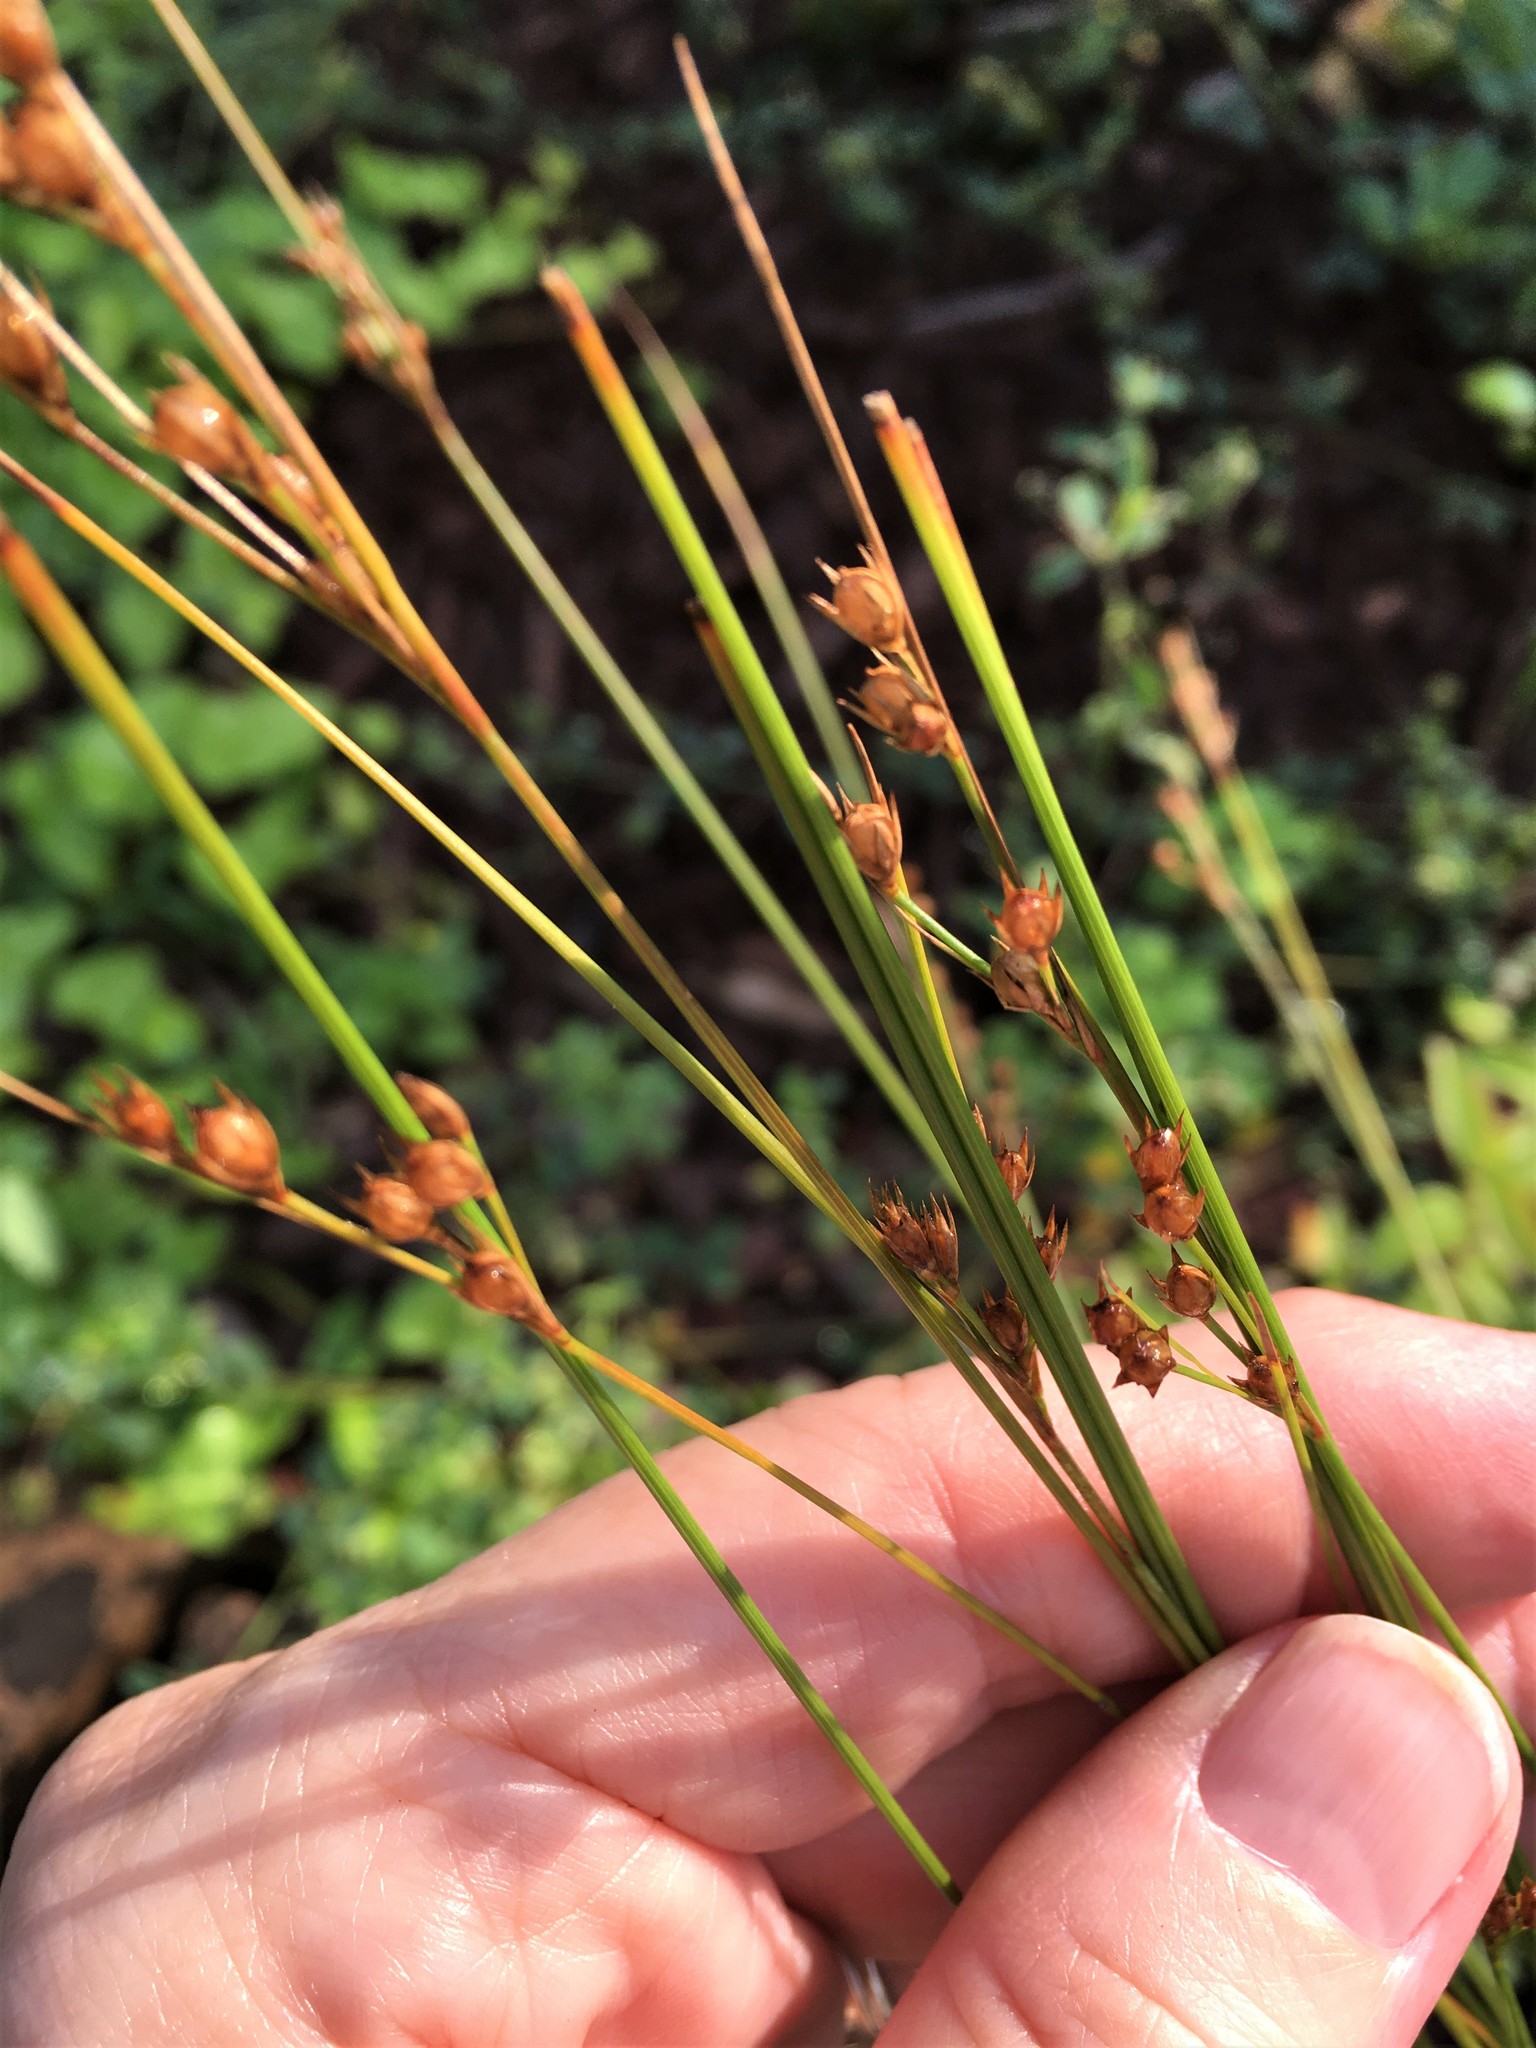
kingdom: Plantae
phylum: Tracheophyta
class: Liliopsida
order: Poales
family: Juncaceae
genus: Juncus
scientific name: Juncus dudleyi
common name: Dudley's rush
